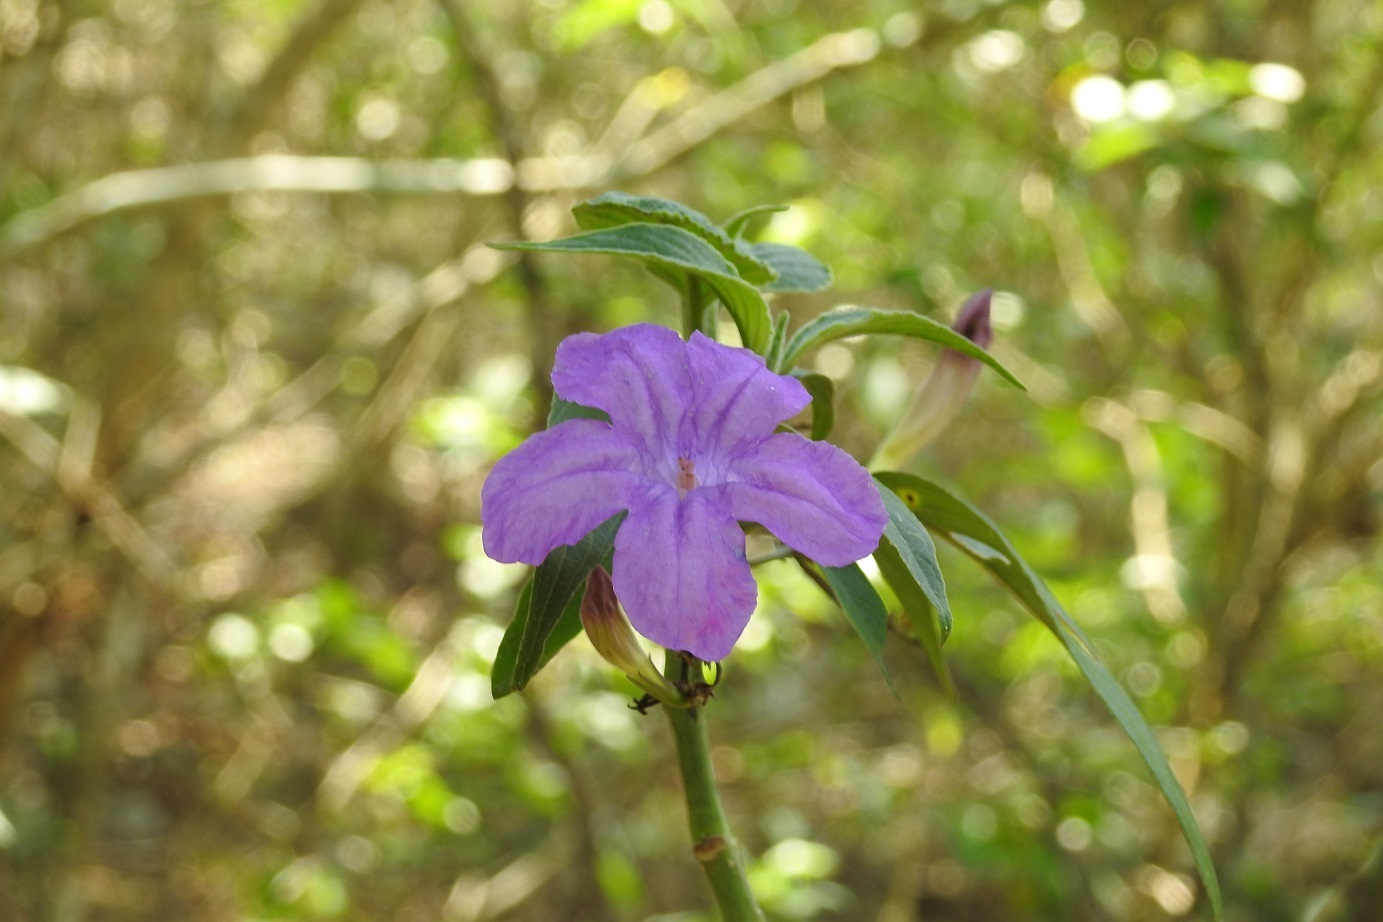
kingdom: Plantae
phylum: Tracheophyta
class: Magnoliopsida
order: Lamiales
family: Acanthaceae
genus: Ruellia
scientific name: Ruellia breedlovei
